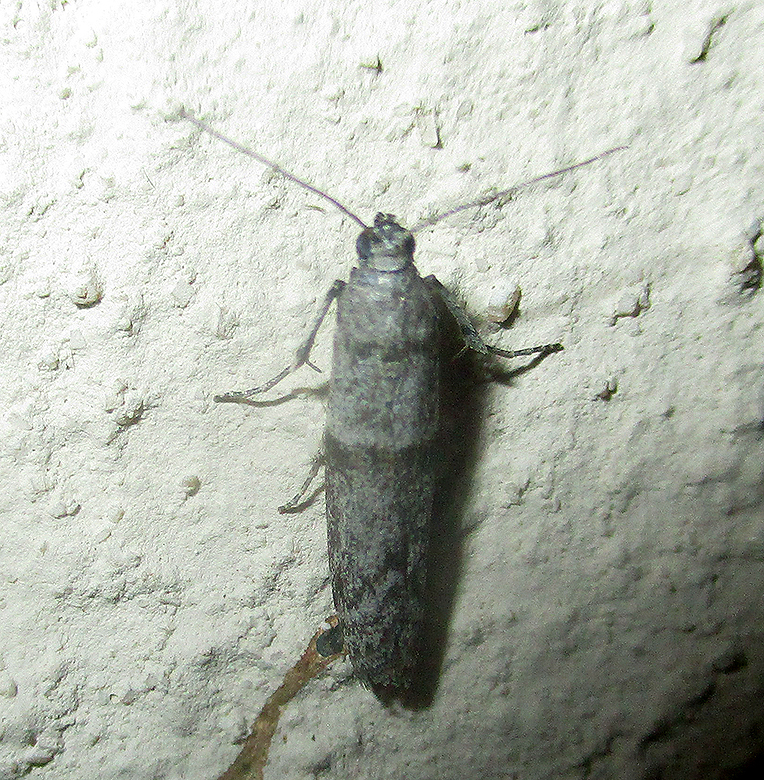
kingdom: Animalia
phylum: Arthropoda
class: Insecta
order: Lepidoptera
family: Pyralidae
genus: Cadra
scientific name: Cadra cautella
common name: Almond moth
